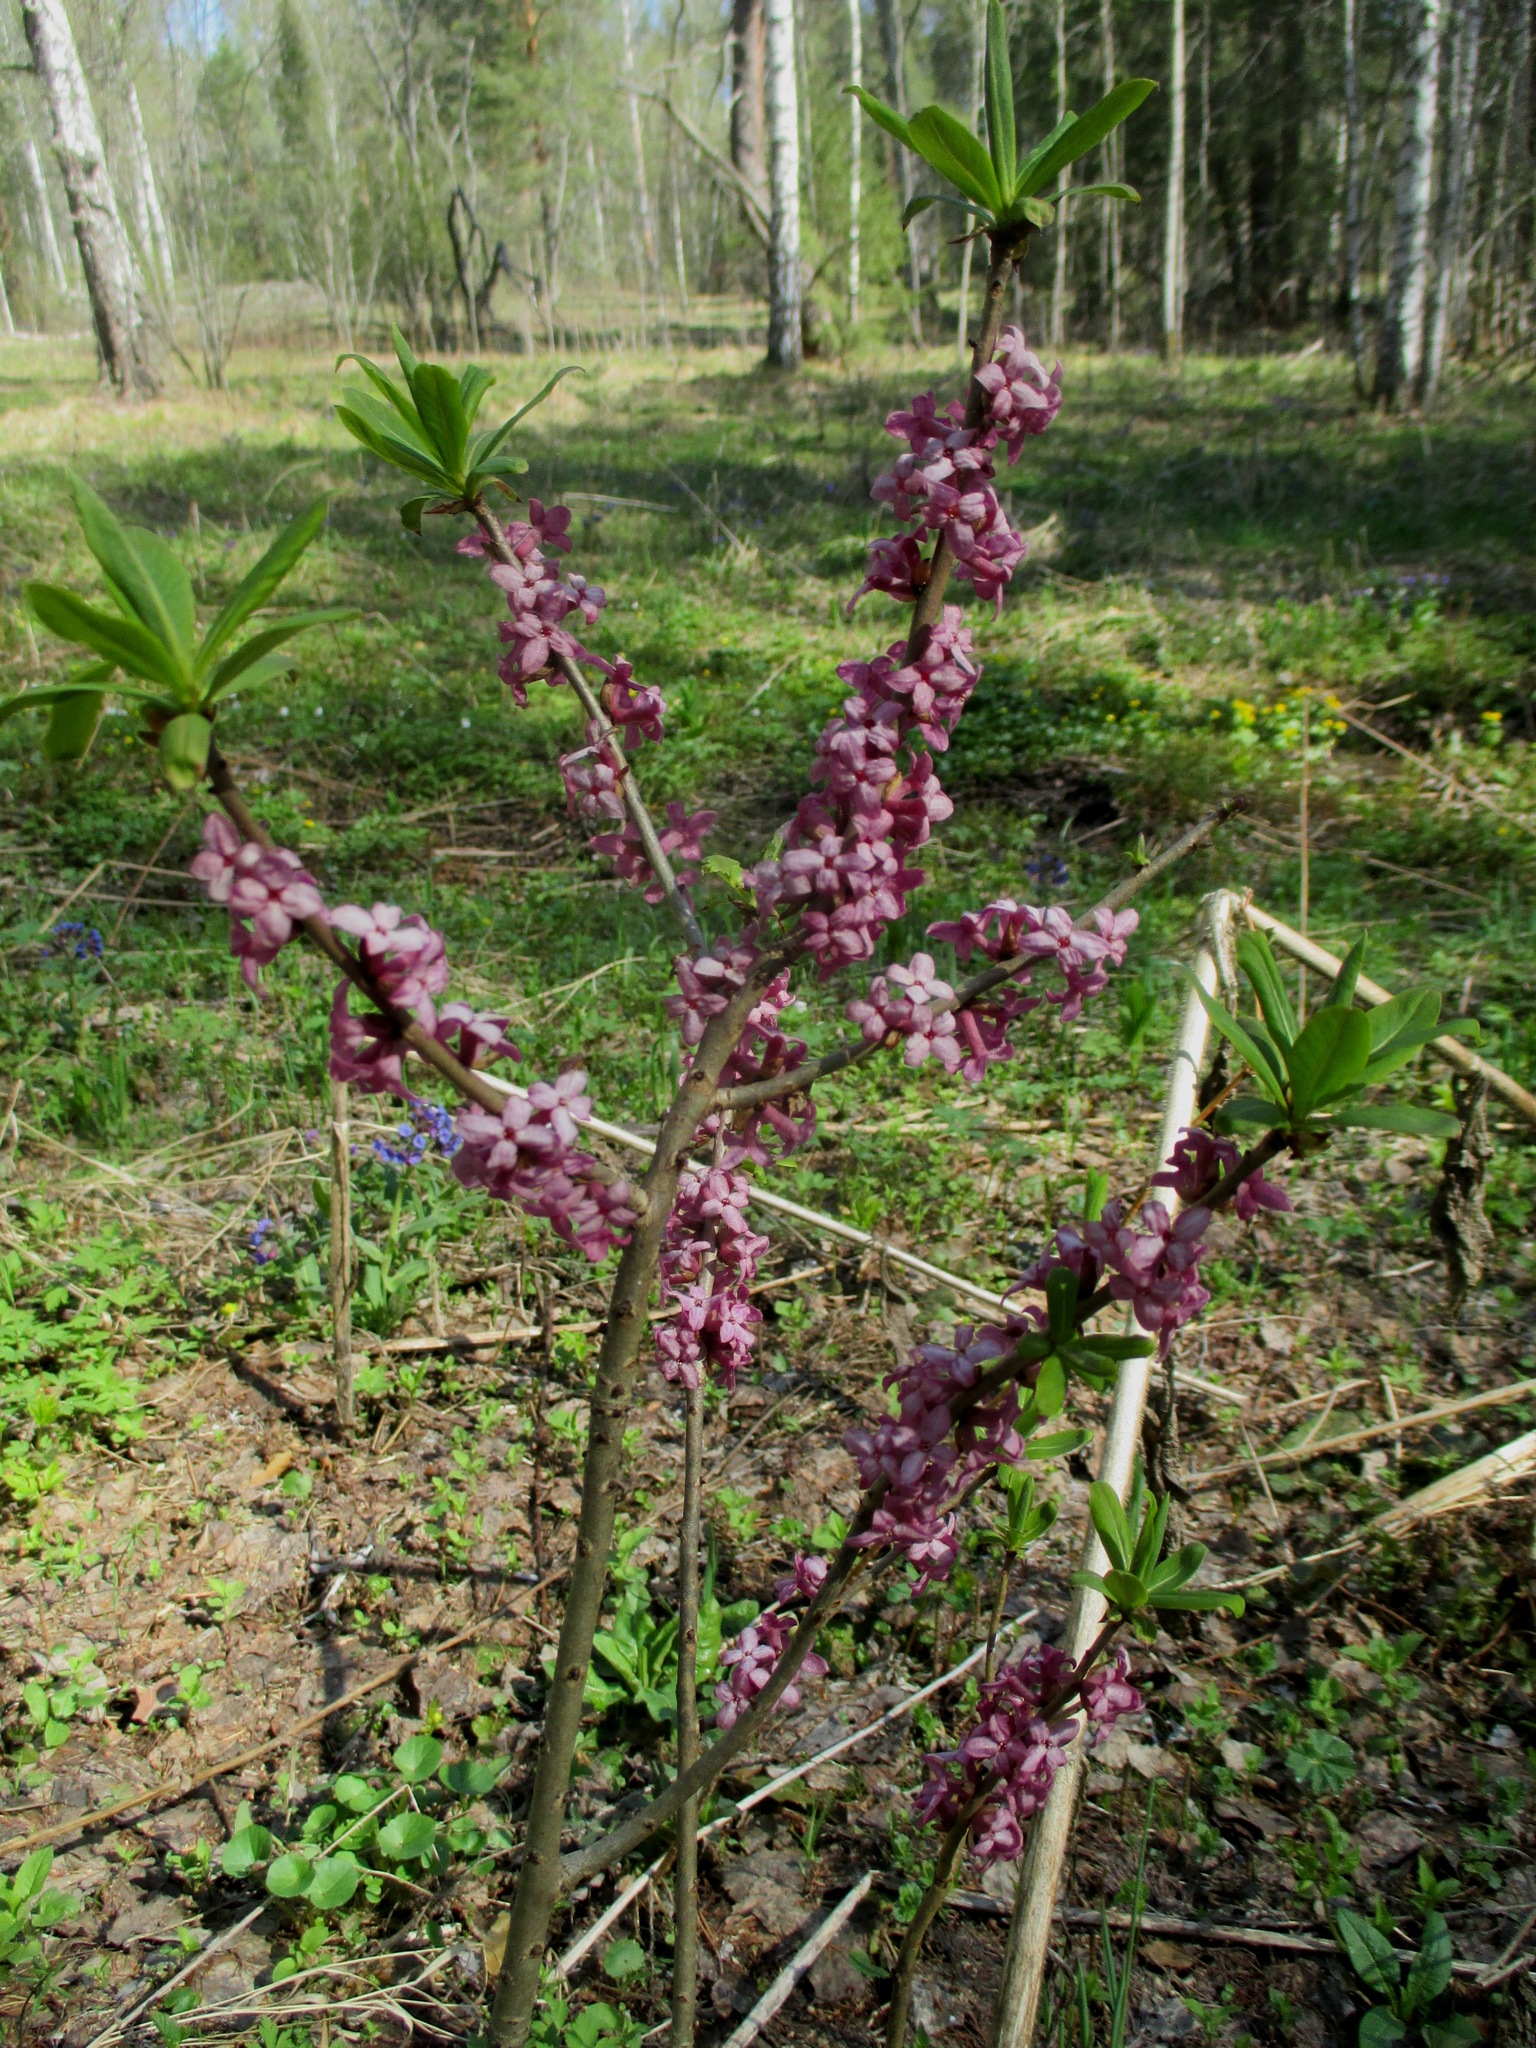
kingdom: Plantae
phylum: Tracheophyta
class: Magnoliopsida
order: Malvales
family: Thymelaeaceae
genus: Daphne
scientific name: Daphne mezereum
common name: Mezereon
